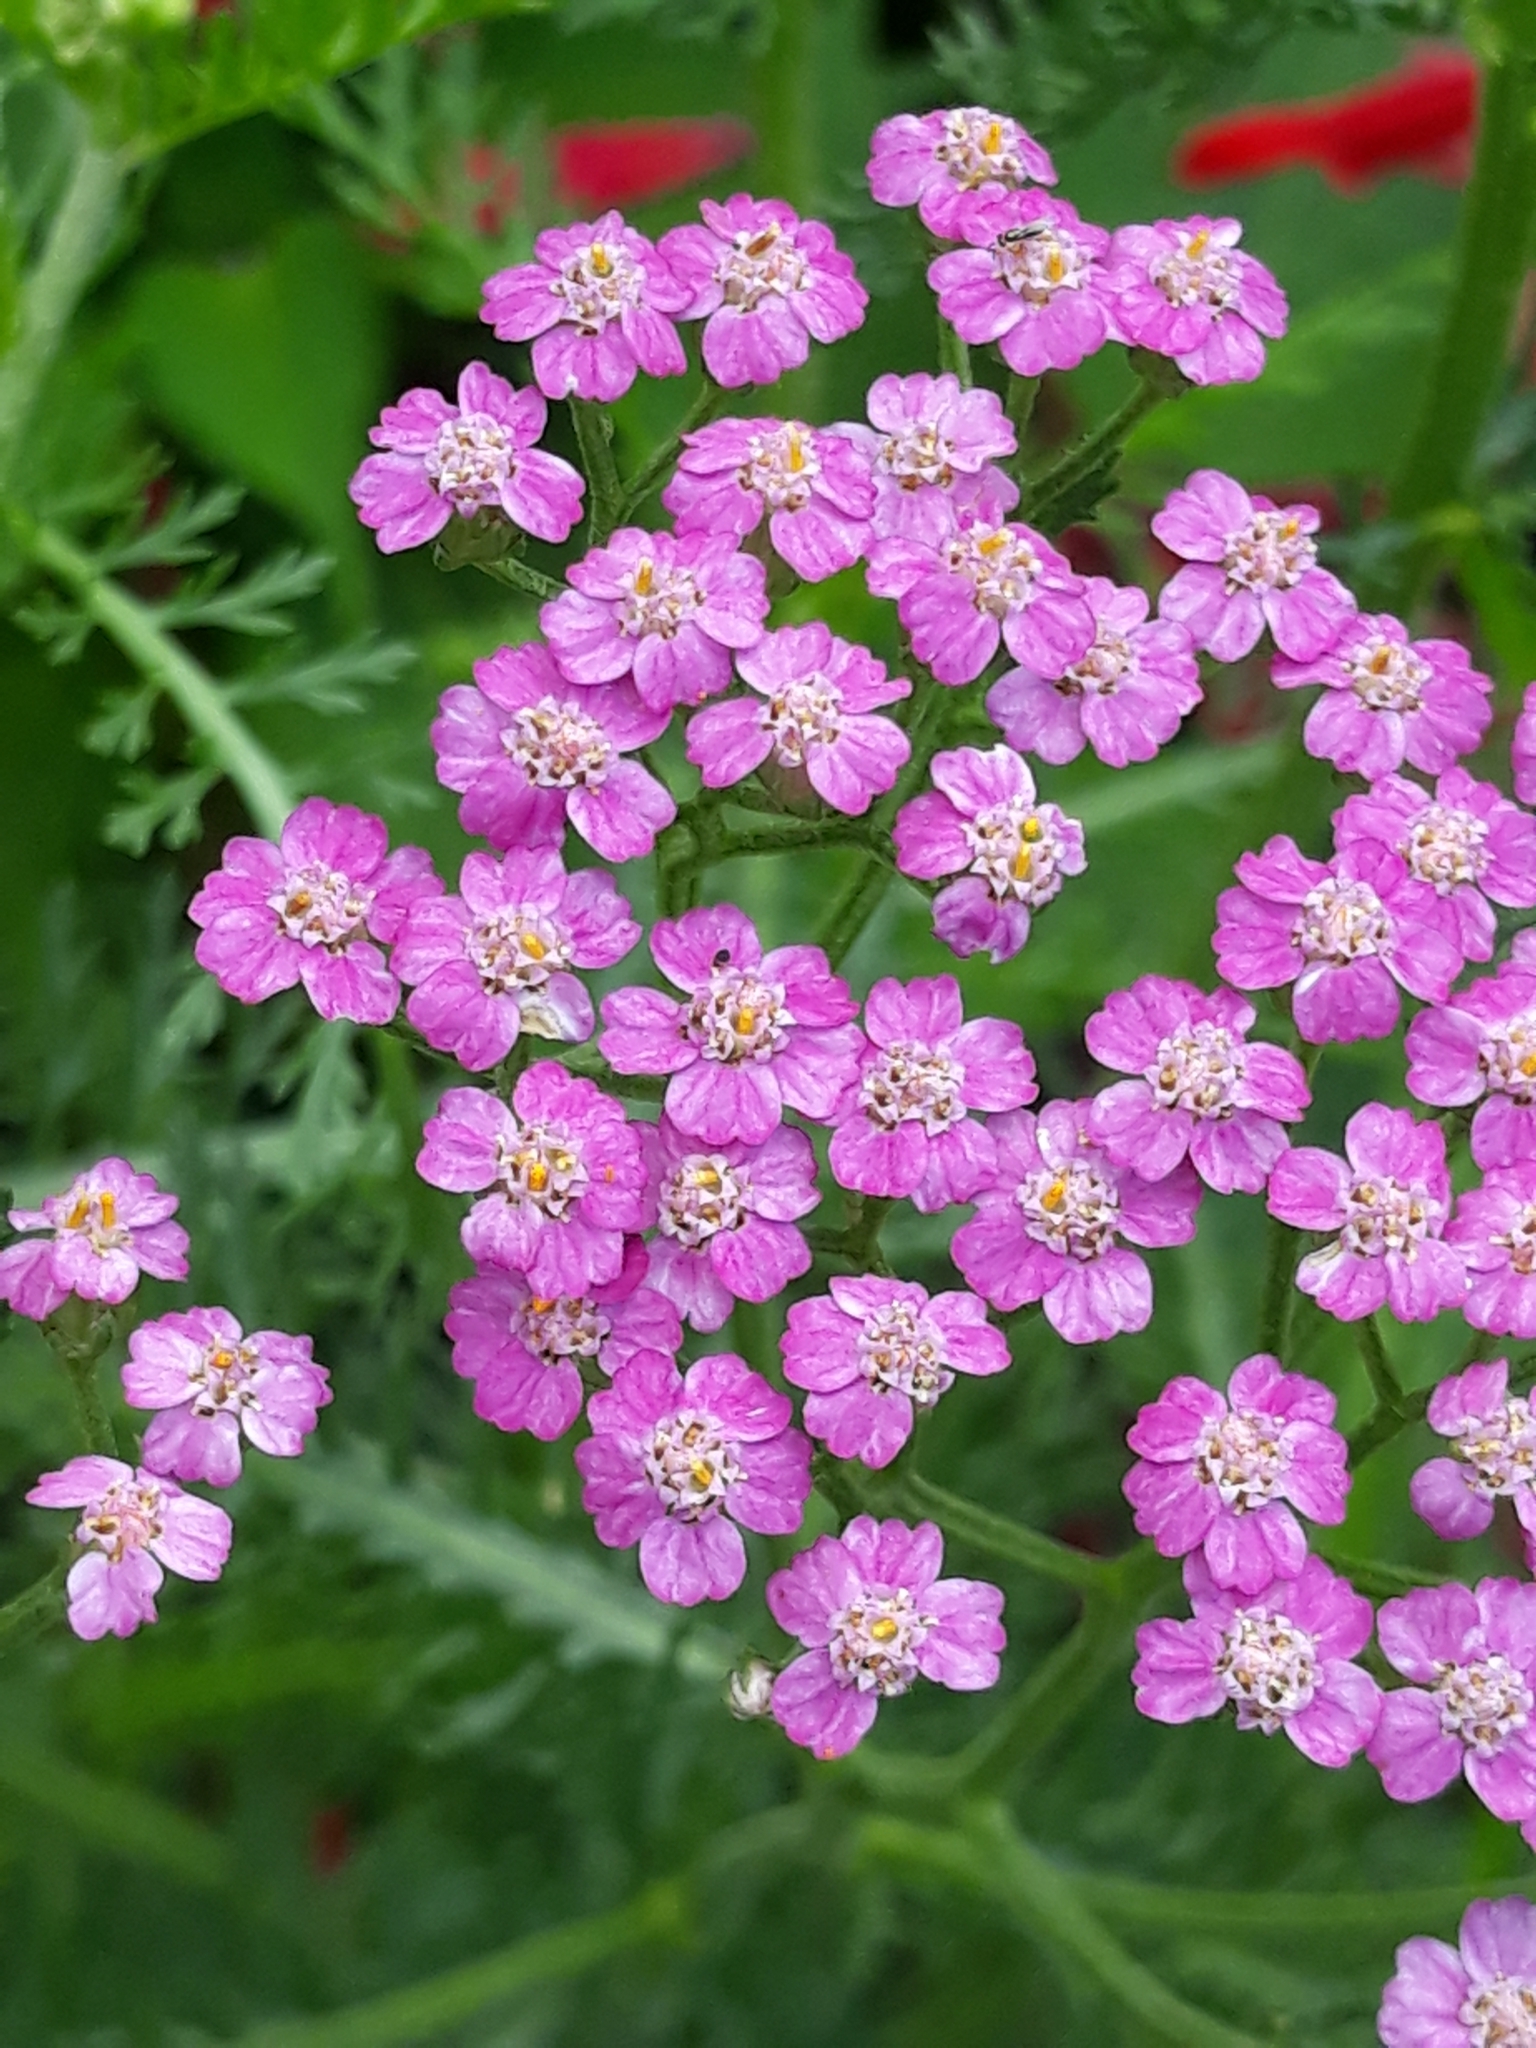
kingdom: Plantae
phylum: Tracheophyta
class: Magnoliopsida
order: Asterales
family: Asteraceae
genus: Achillea
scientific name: Achillea millefolium
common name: Yarrow
